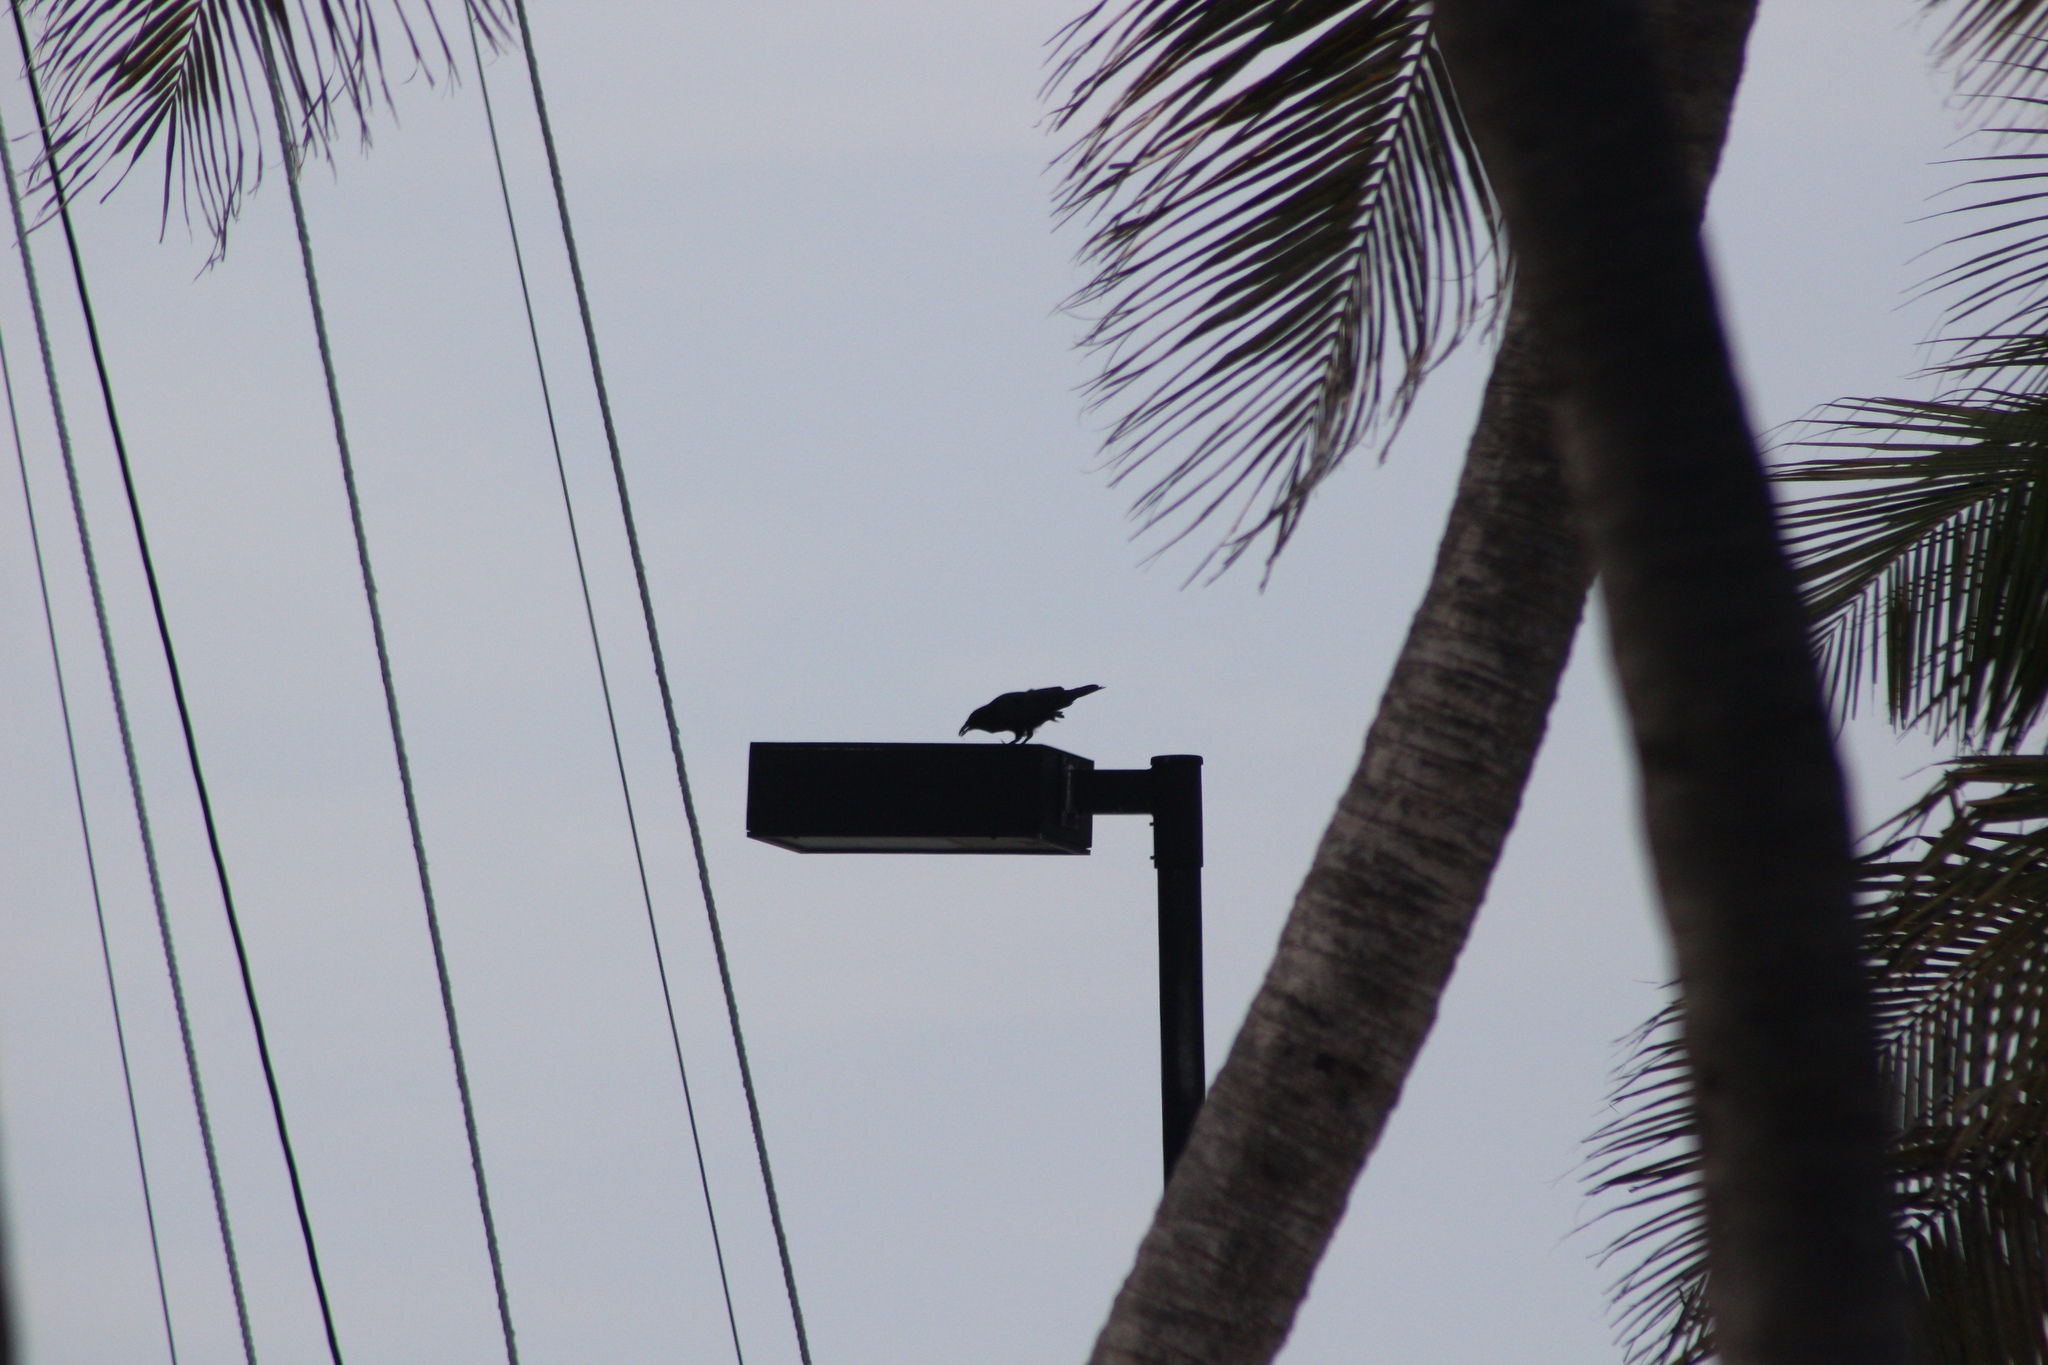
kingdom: Animalia
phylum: Chordata
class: Aves
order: Passeriformes
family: Corvidae
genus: Corvus
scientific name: Corvus ossifragus
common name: Fish crow
